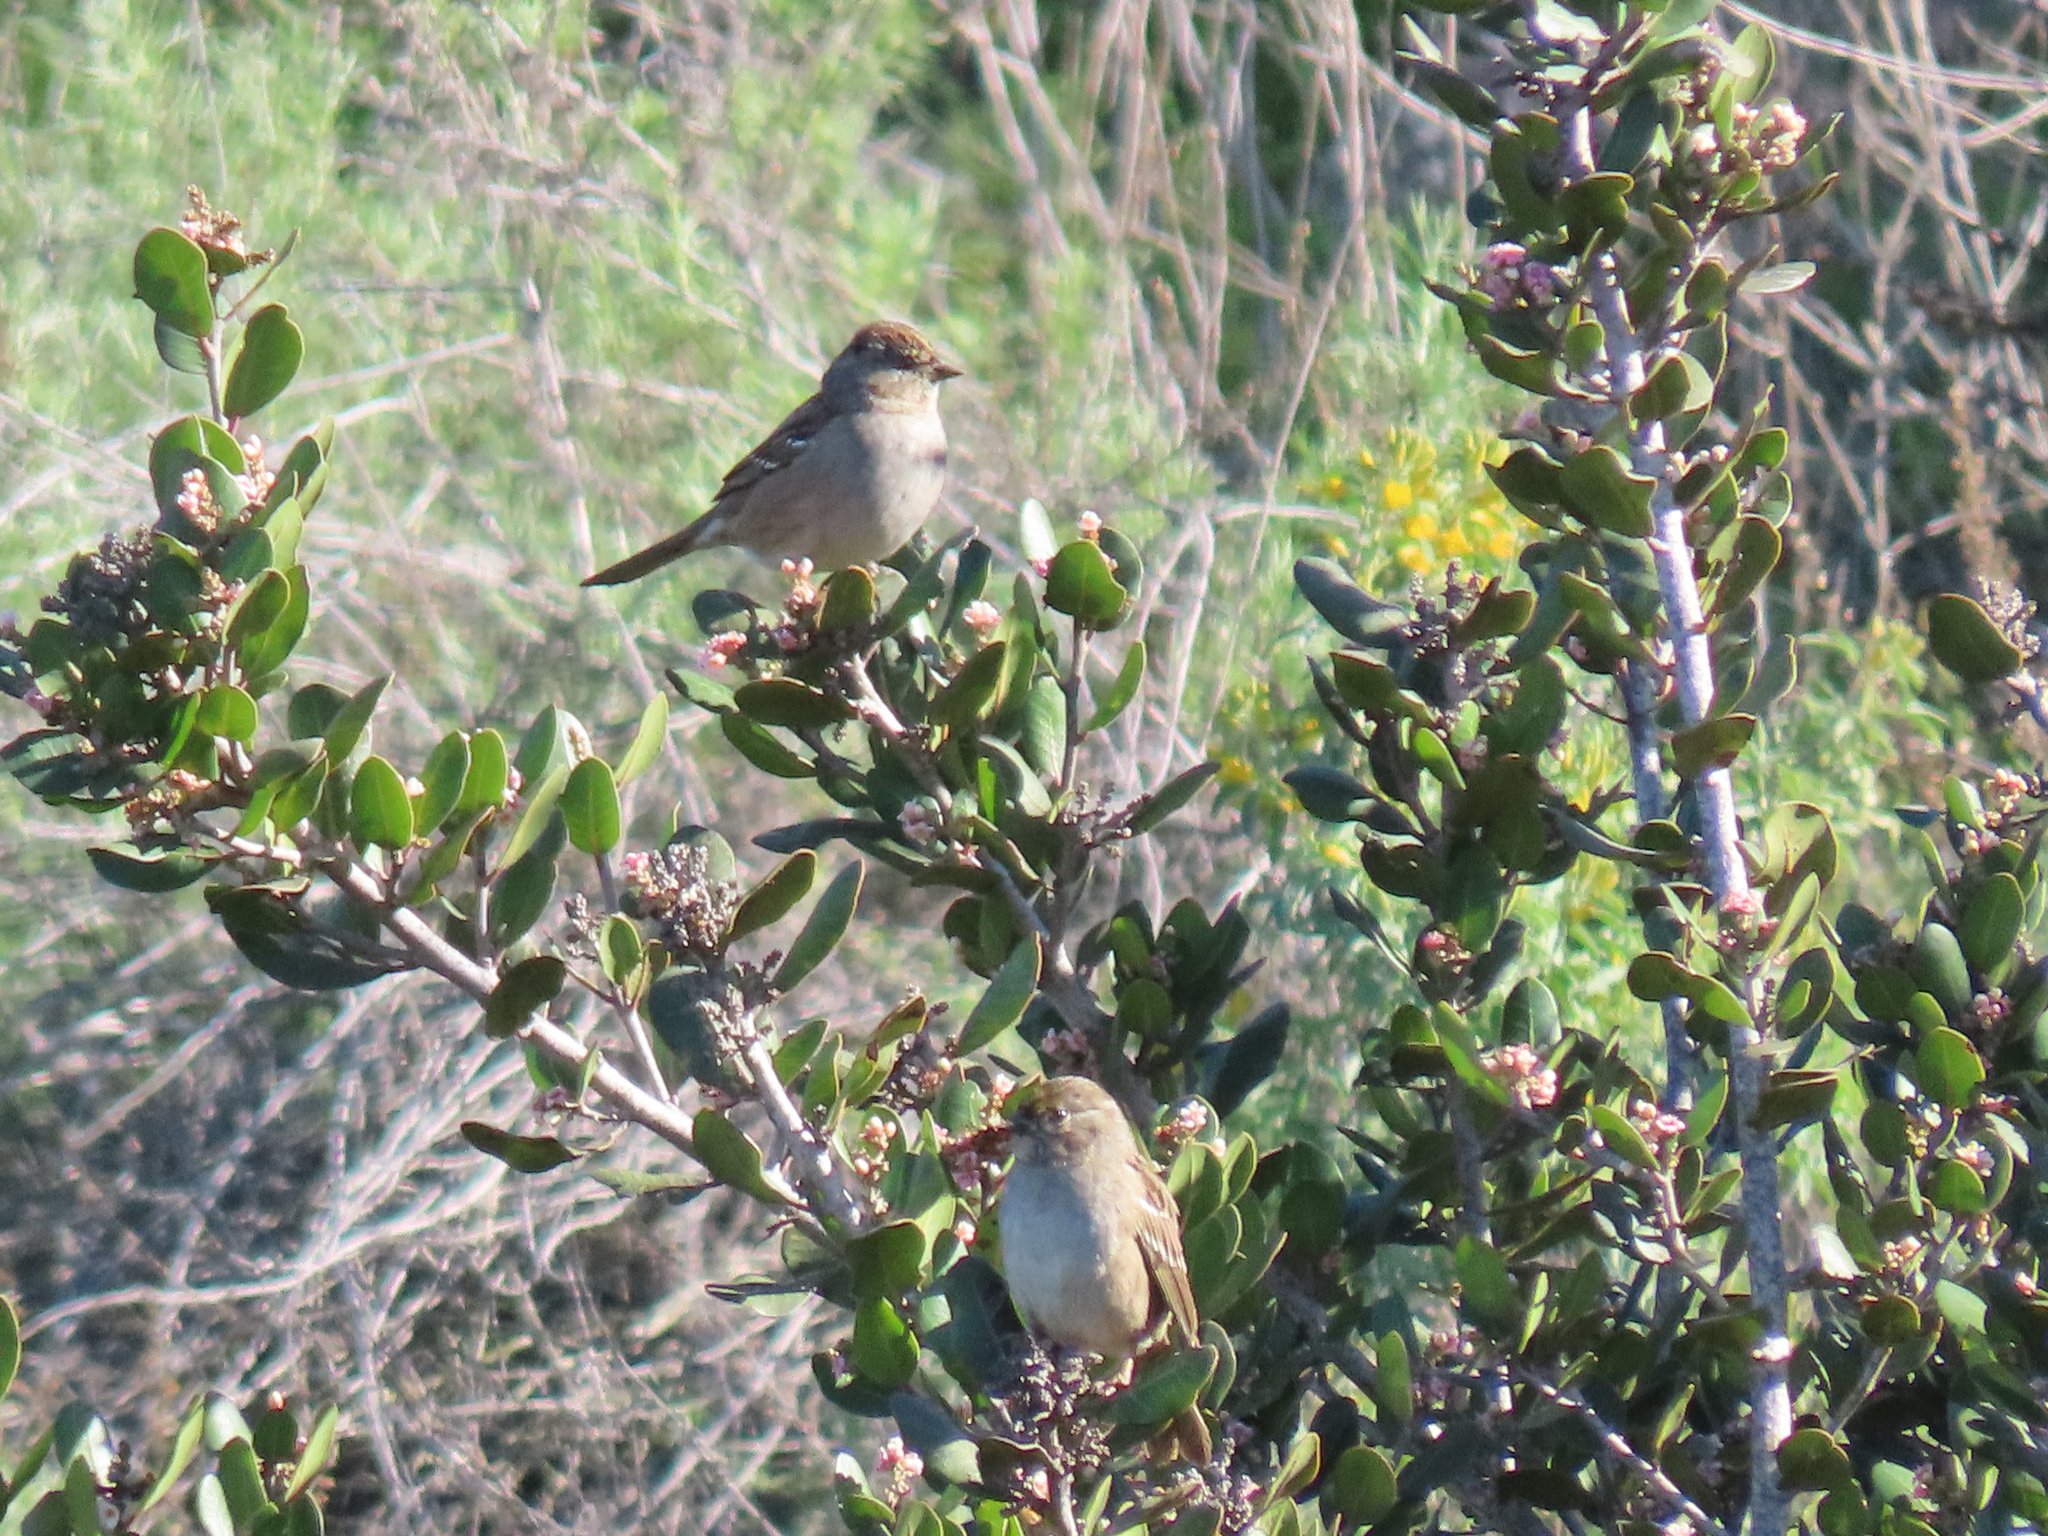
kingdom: Animalia
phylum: Chordata
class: Aves
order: Passeriformes
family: Passerellidae
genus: Zonotrichia
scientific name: Zonotrichia atricapilla
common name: Golden-crowned sparrow
